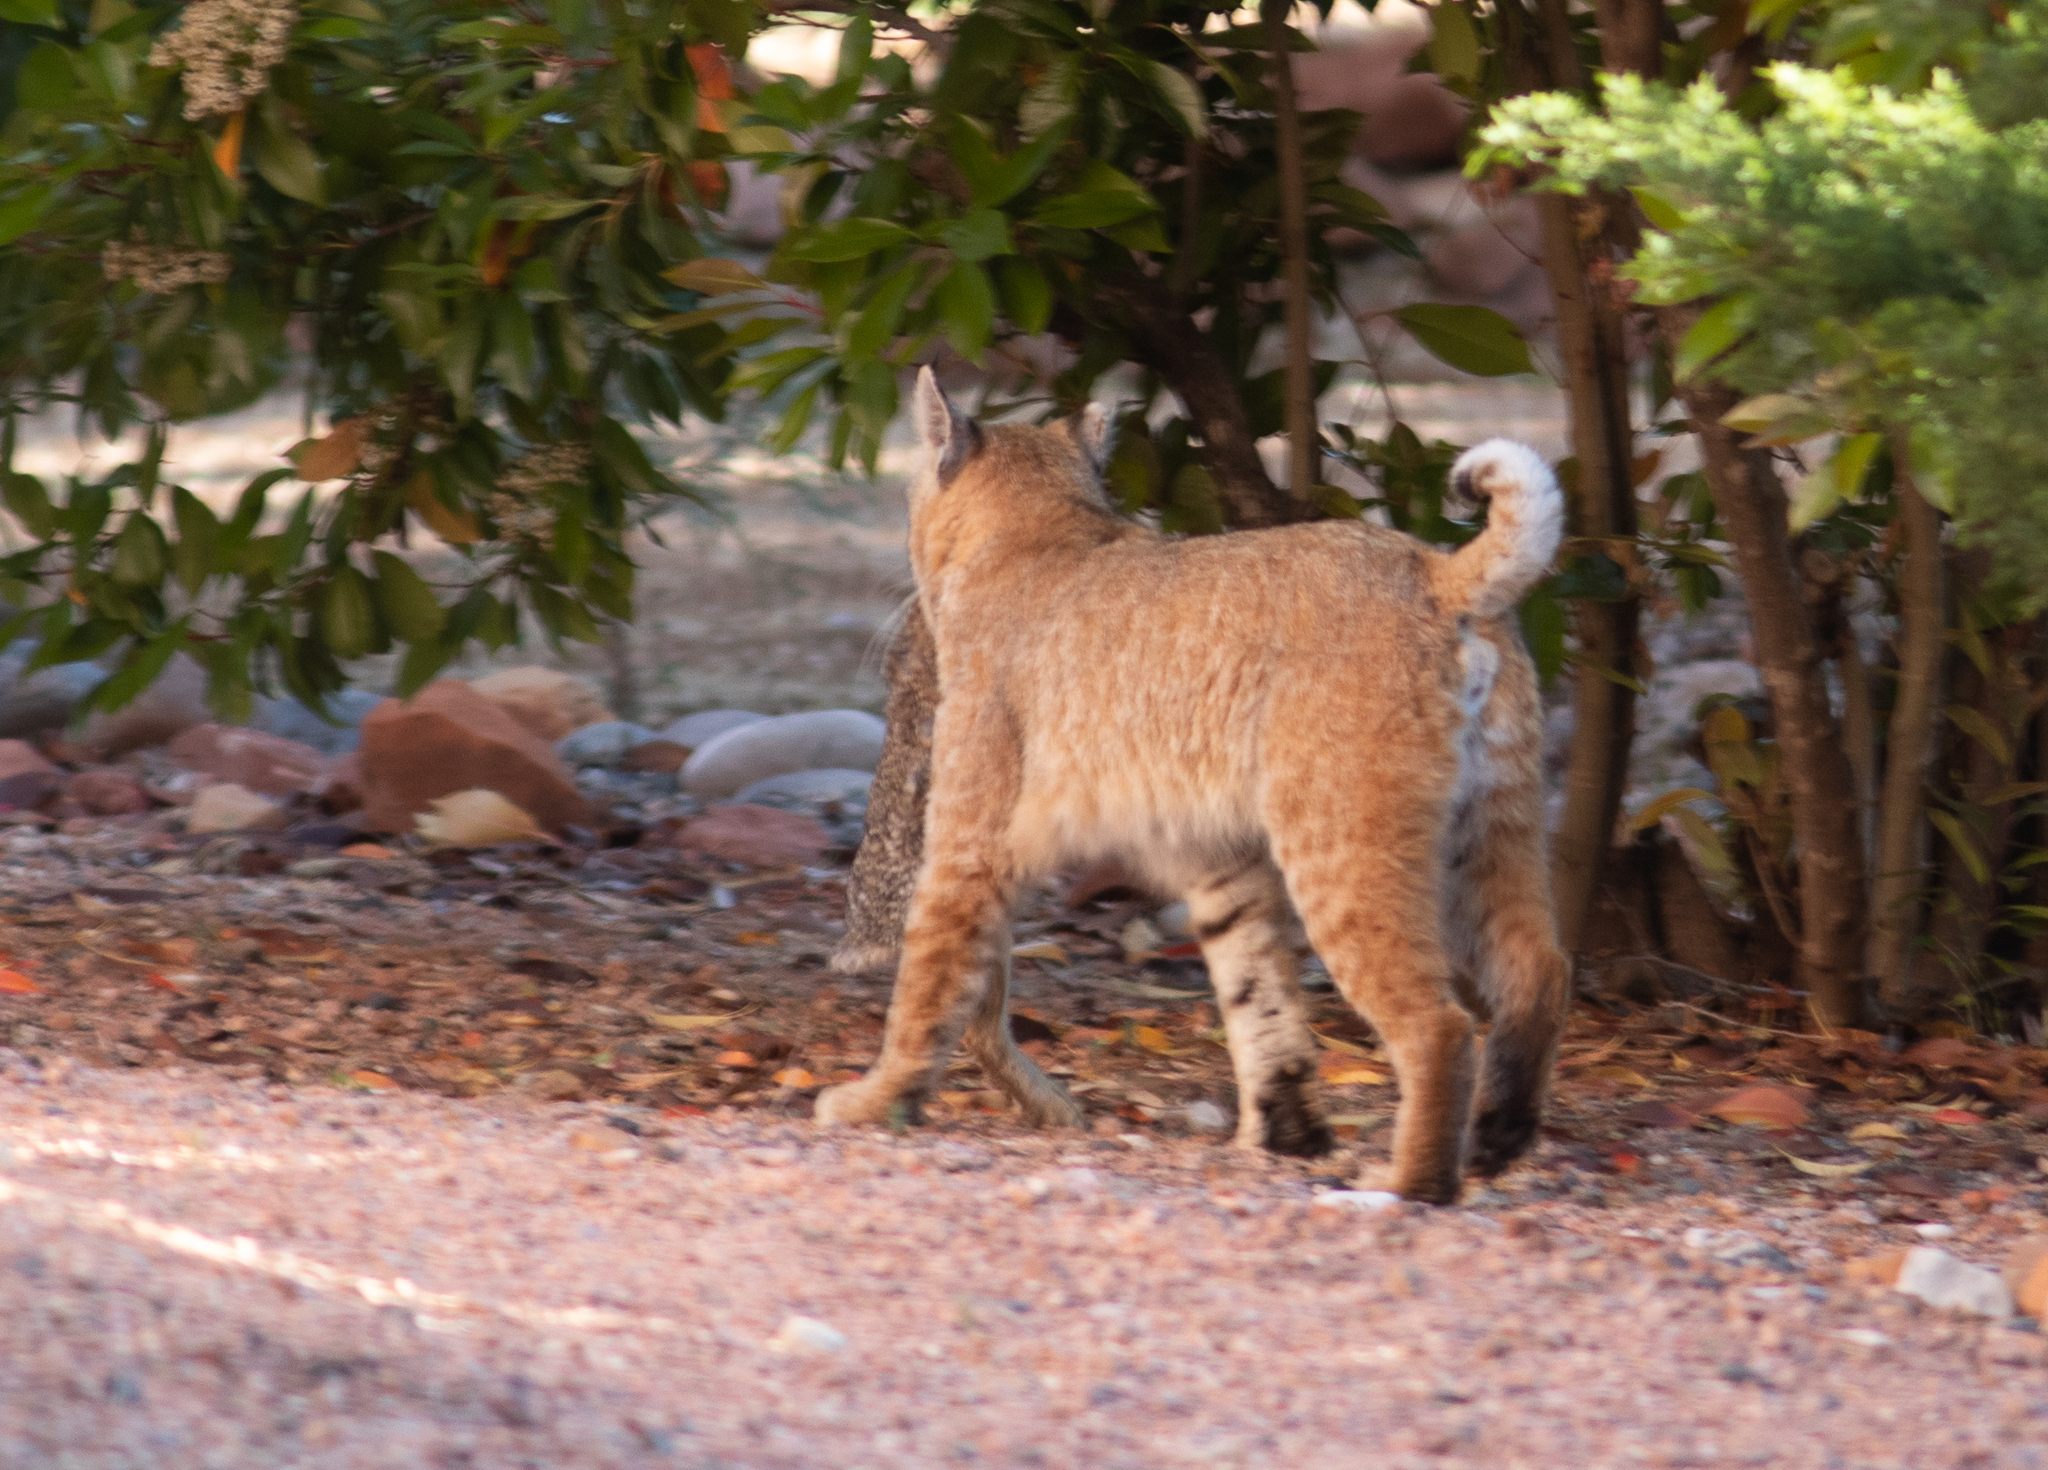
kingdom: Animalia
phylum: Chordata
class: Mammalia
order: Carnivora
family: Felidae
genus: Lynx
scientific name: Lynx rufus
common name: Bobcat
